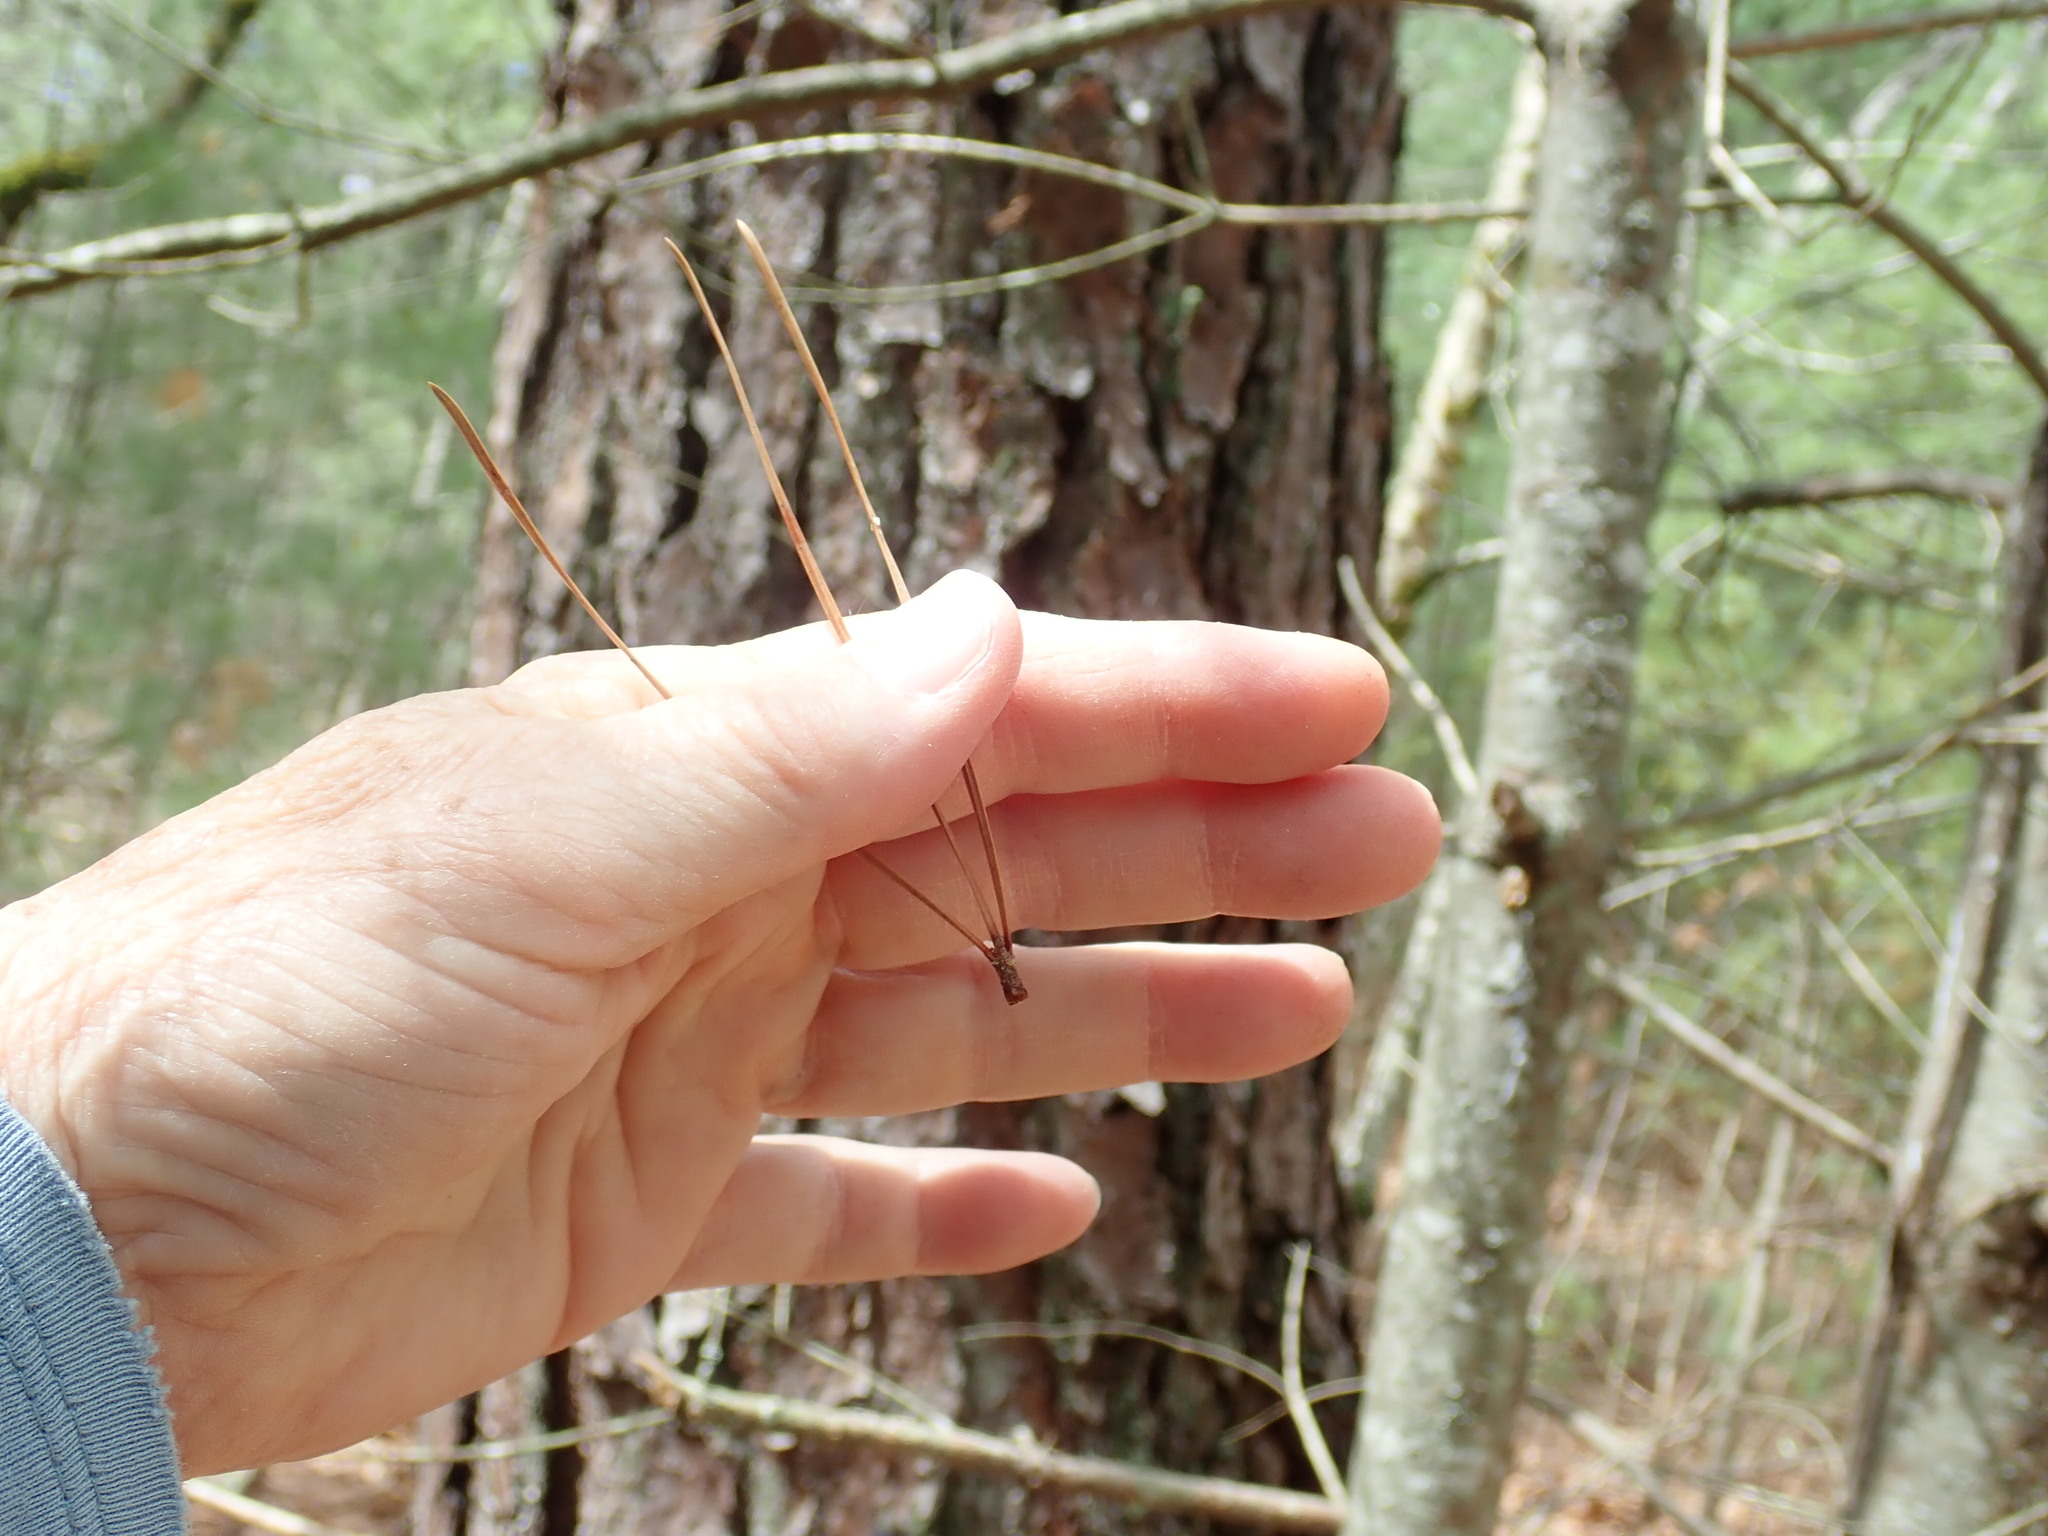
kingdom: Plantae
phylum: Tracheophyta
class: Pinopsida
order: Pinales
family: Pinaceae
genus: Pinus
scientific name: Pinus rigida
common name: Pitch pine
